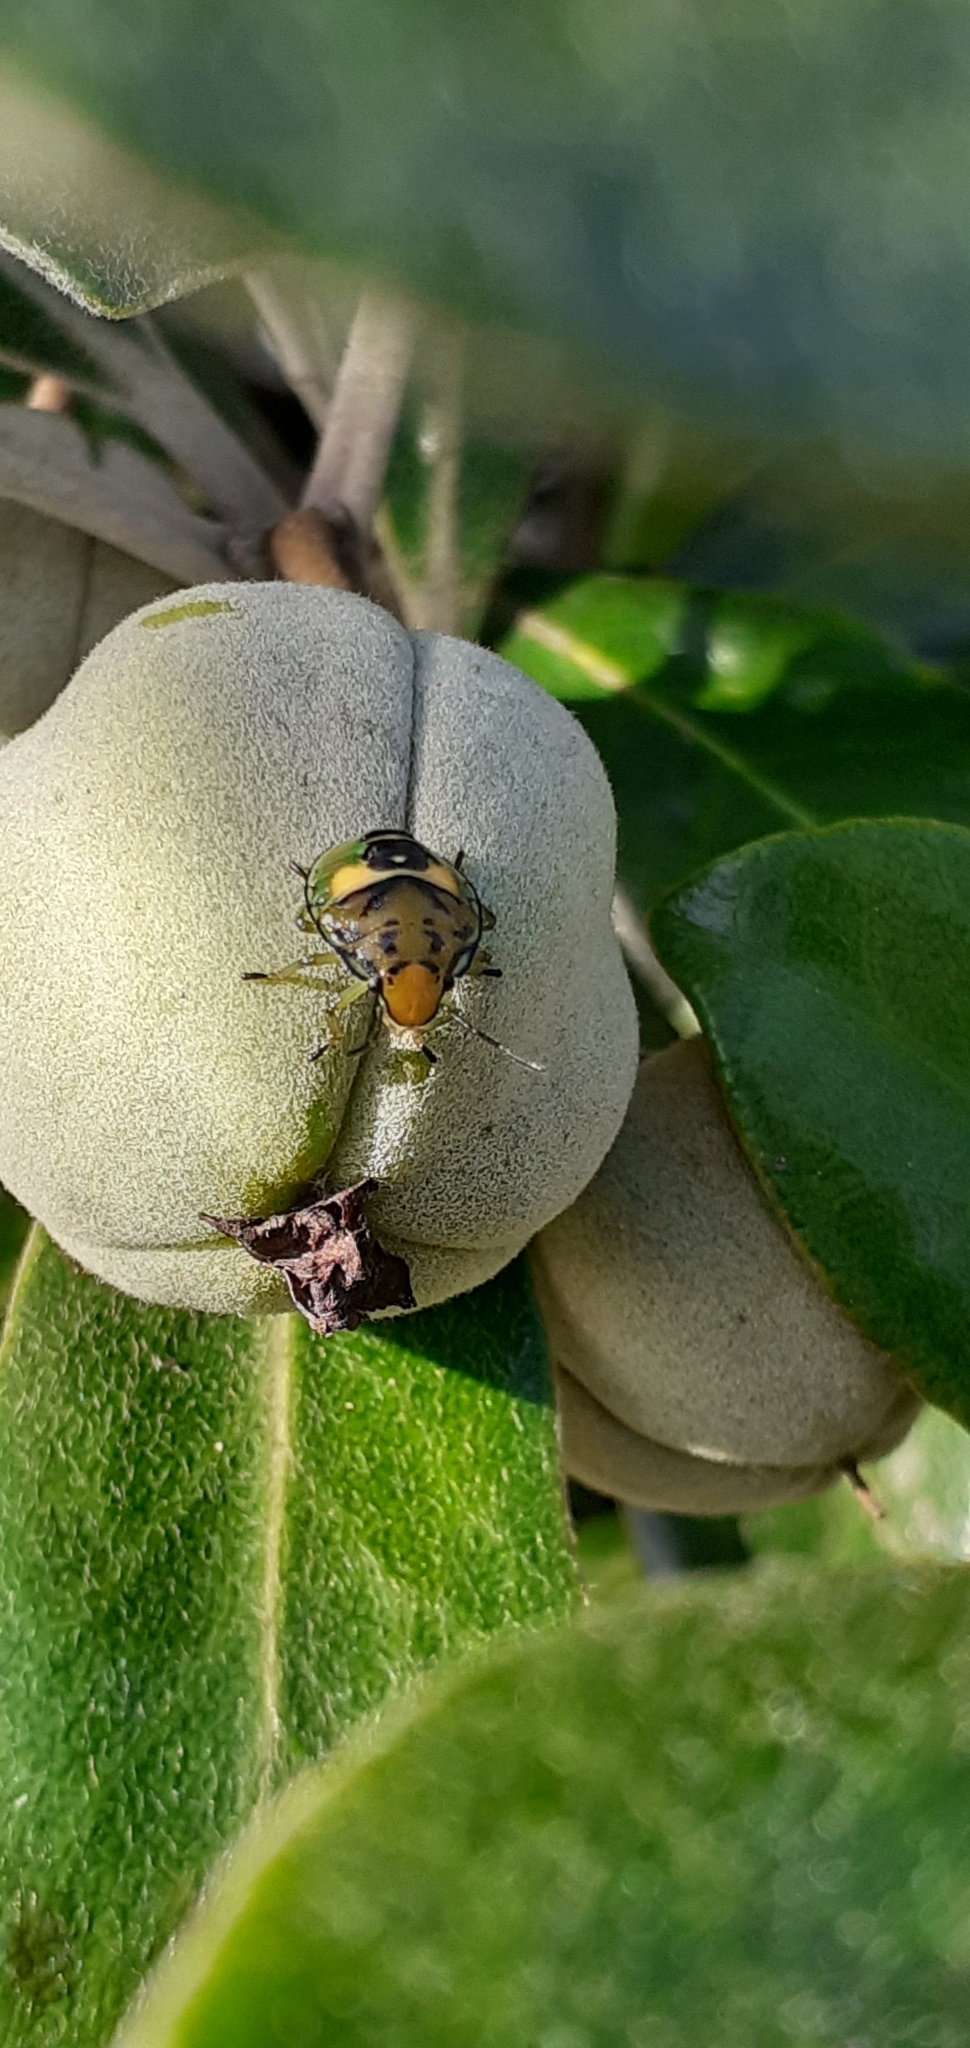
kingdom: Animalia
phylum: Arthropoda
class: Insecta
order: Hemiptera
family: Pentatomidae
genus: Glaucias
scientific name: Glaucias amyota
